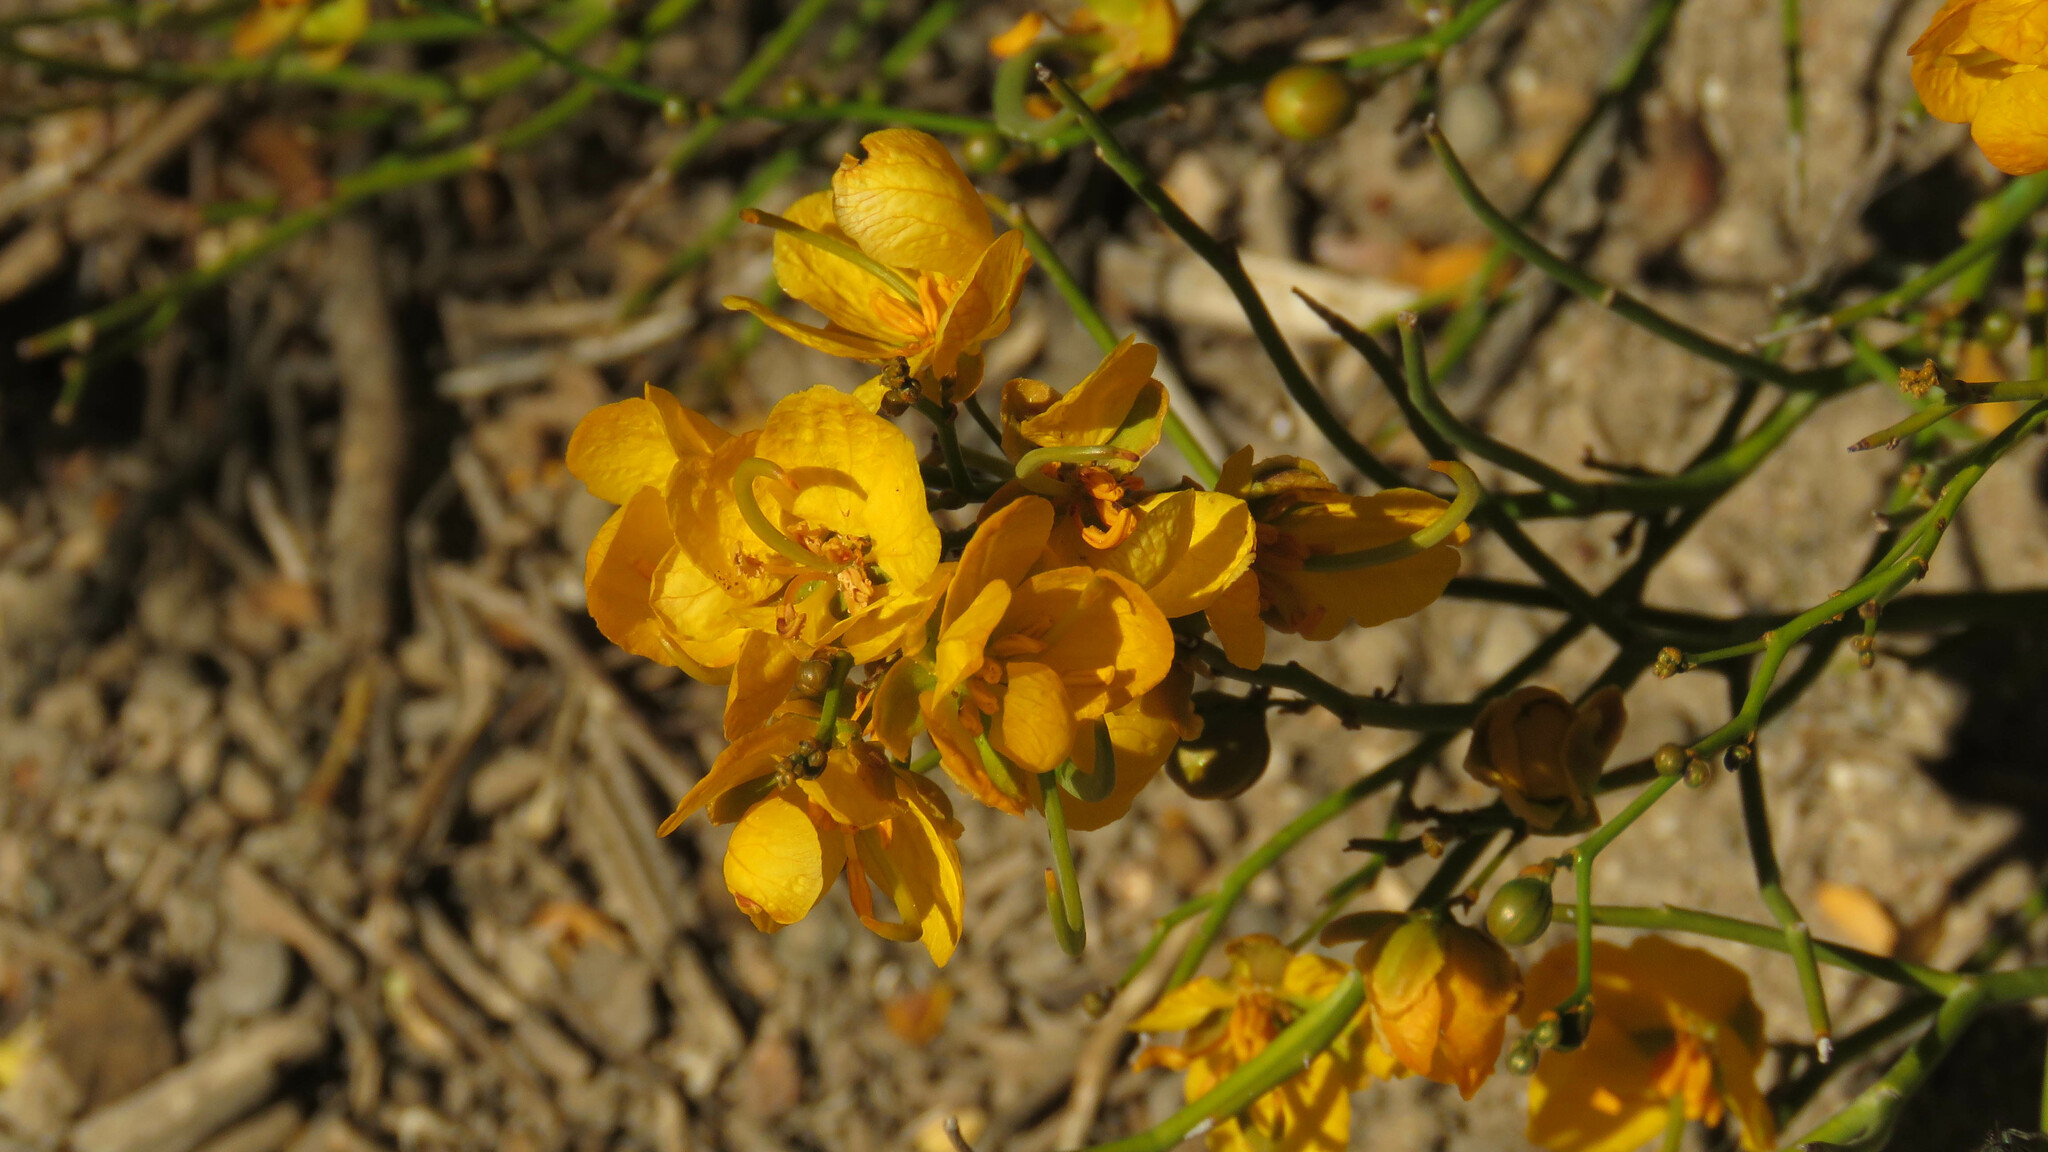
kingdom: Plantae
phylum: Tracheophyta
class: Magnoliopsida
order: Fabales
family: Fabaceae
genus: Senna
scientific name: Senna pachyrrhiza
